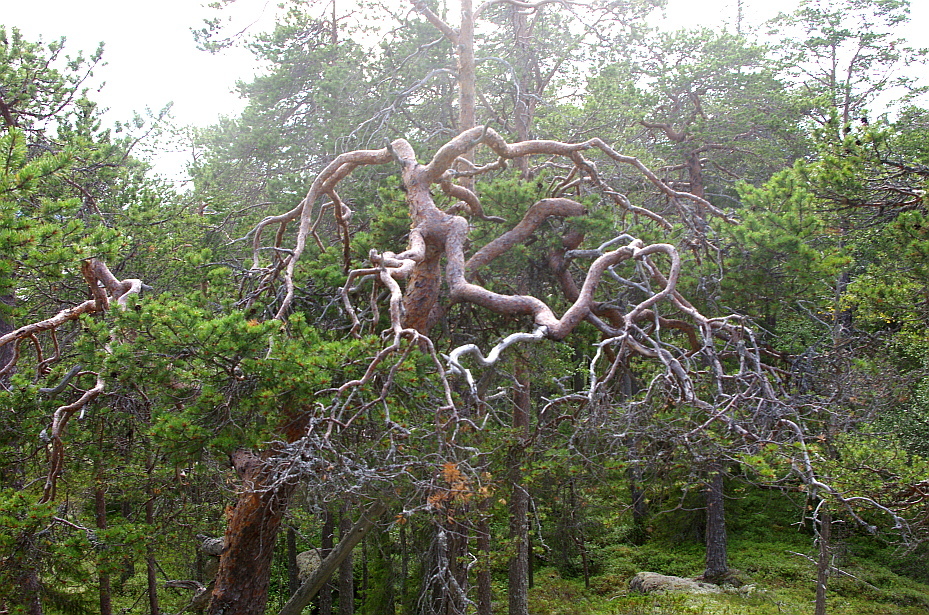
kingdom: Plantae
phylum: Tracheophyta
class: Pinopsida
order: Pinales
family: Pinaceae
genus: Pinus
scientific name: Pinus sylvestris
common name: Scots pine
